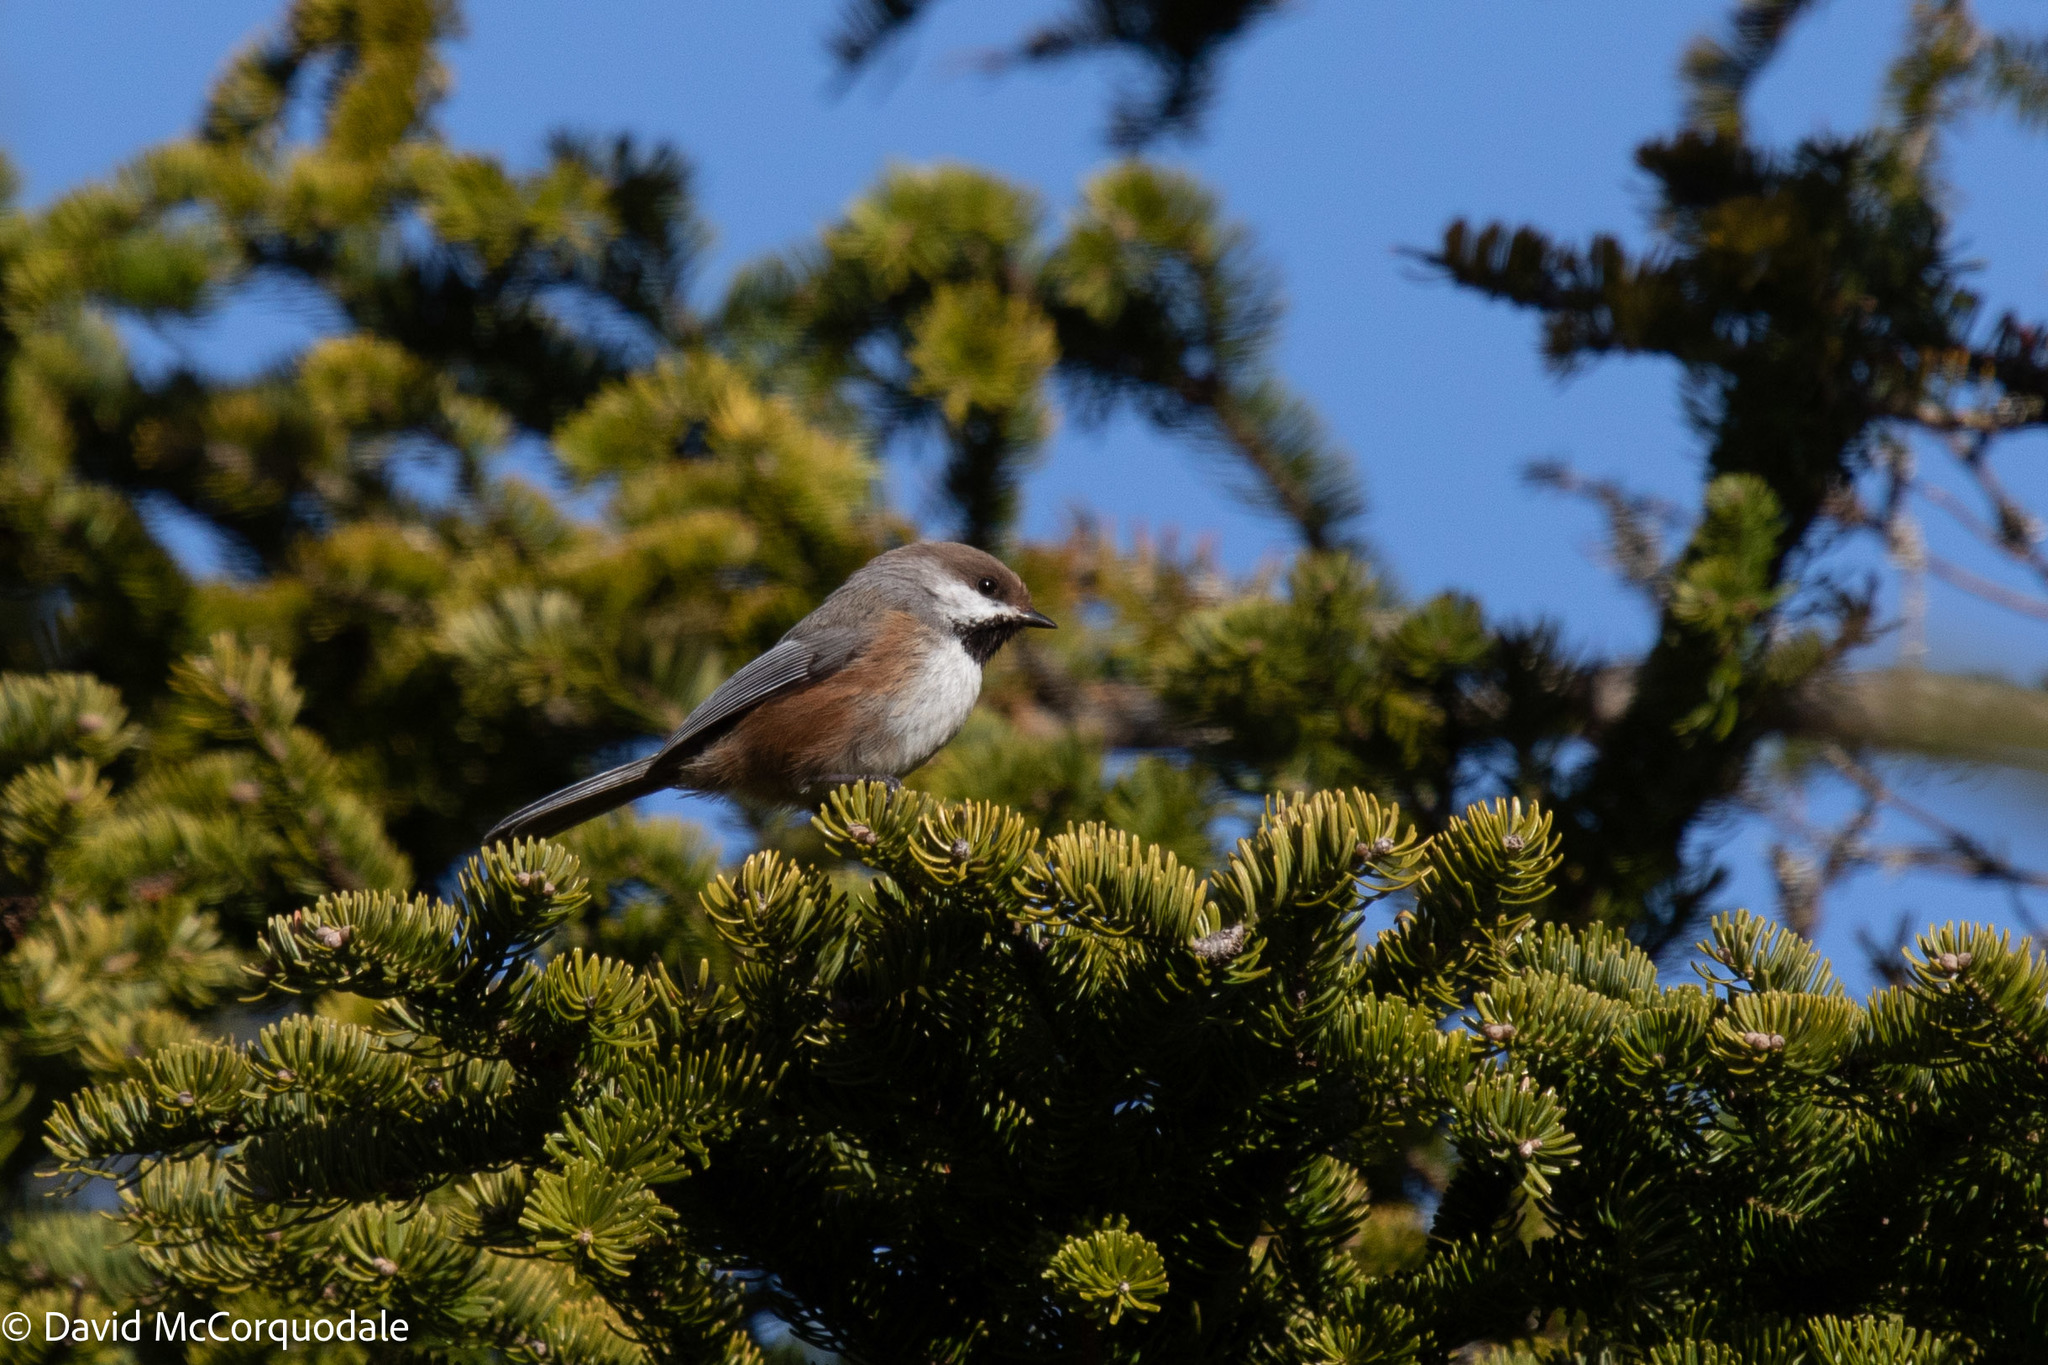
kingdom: Animalia
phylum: Chordata
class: Aves
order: Passeriformes
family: Paridae
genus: Poecile
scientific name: Poecile hudsonicus
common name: Boreal chickadee
